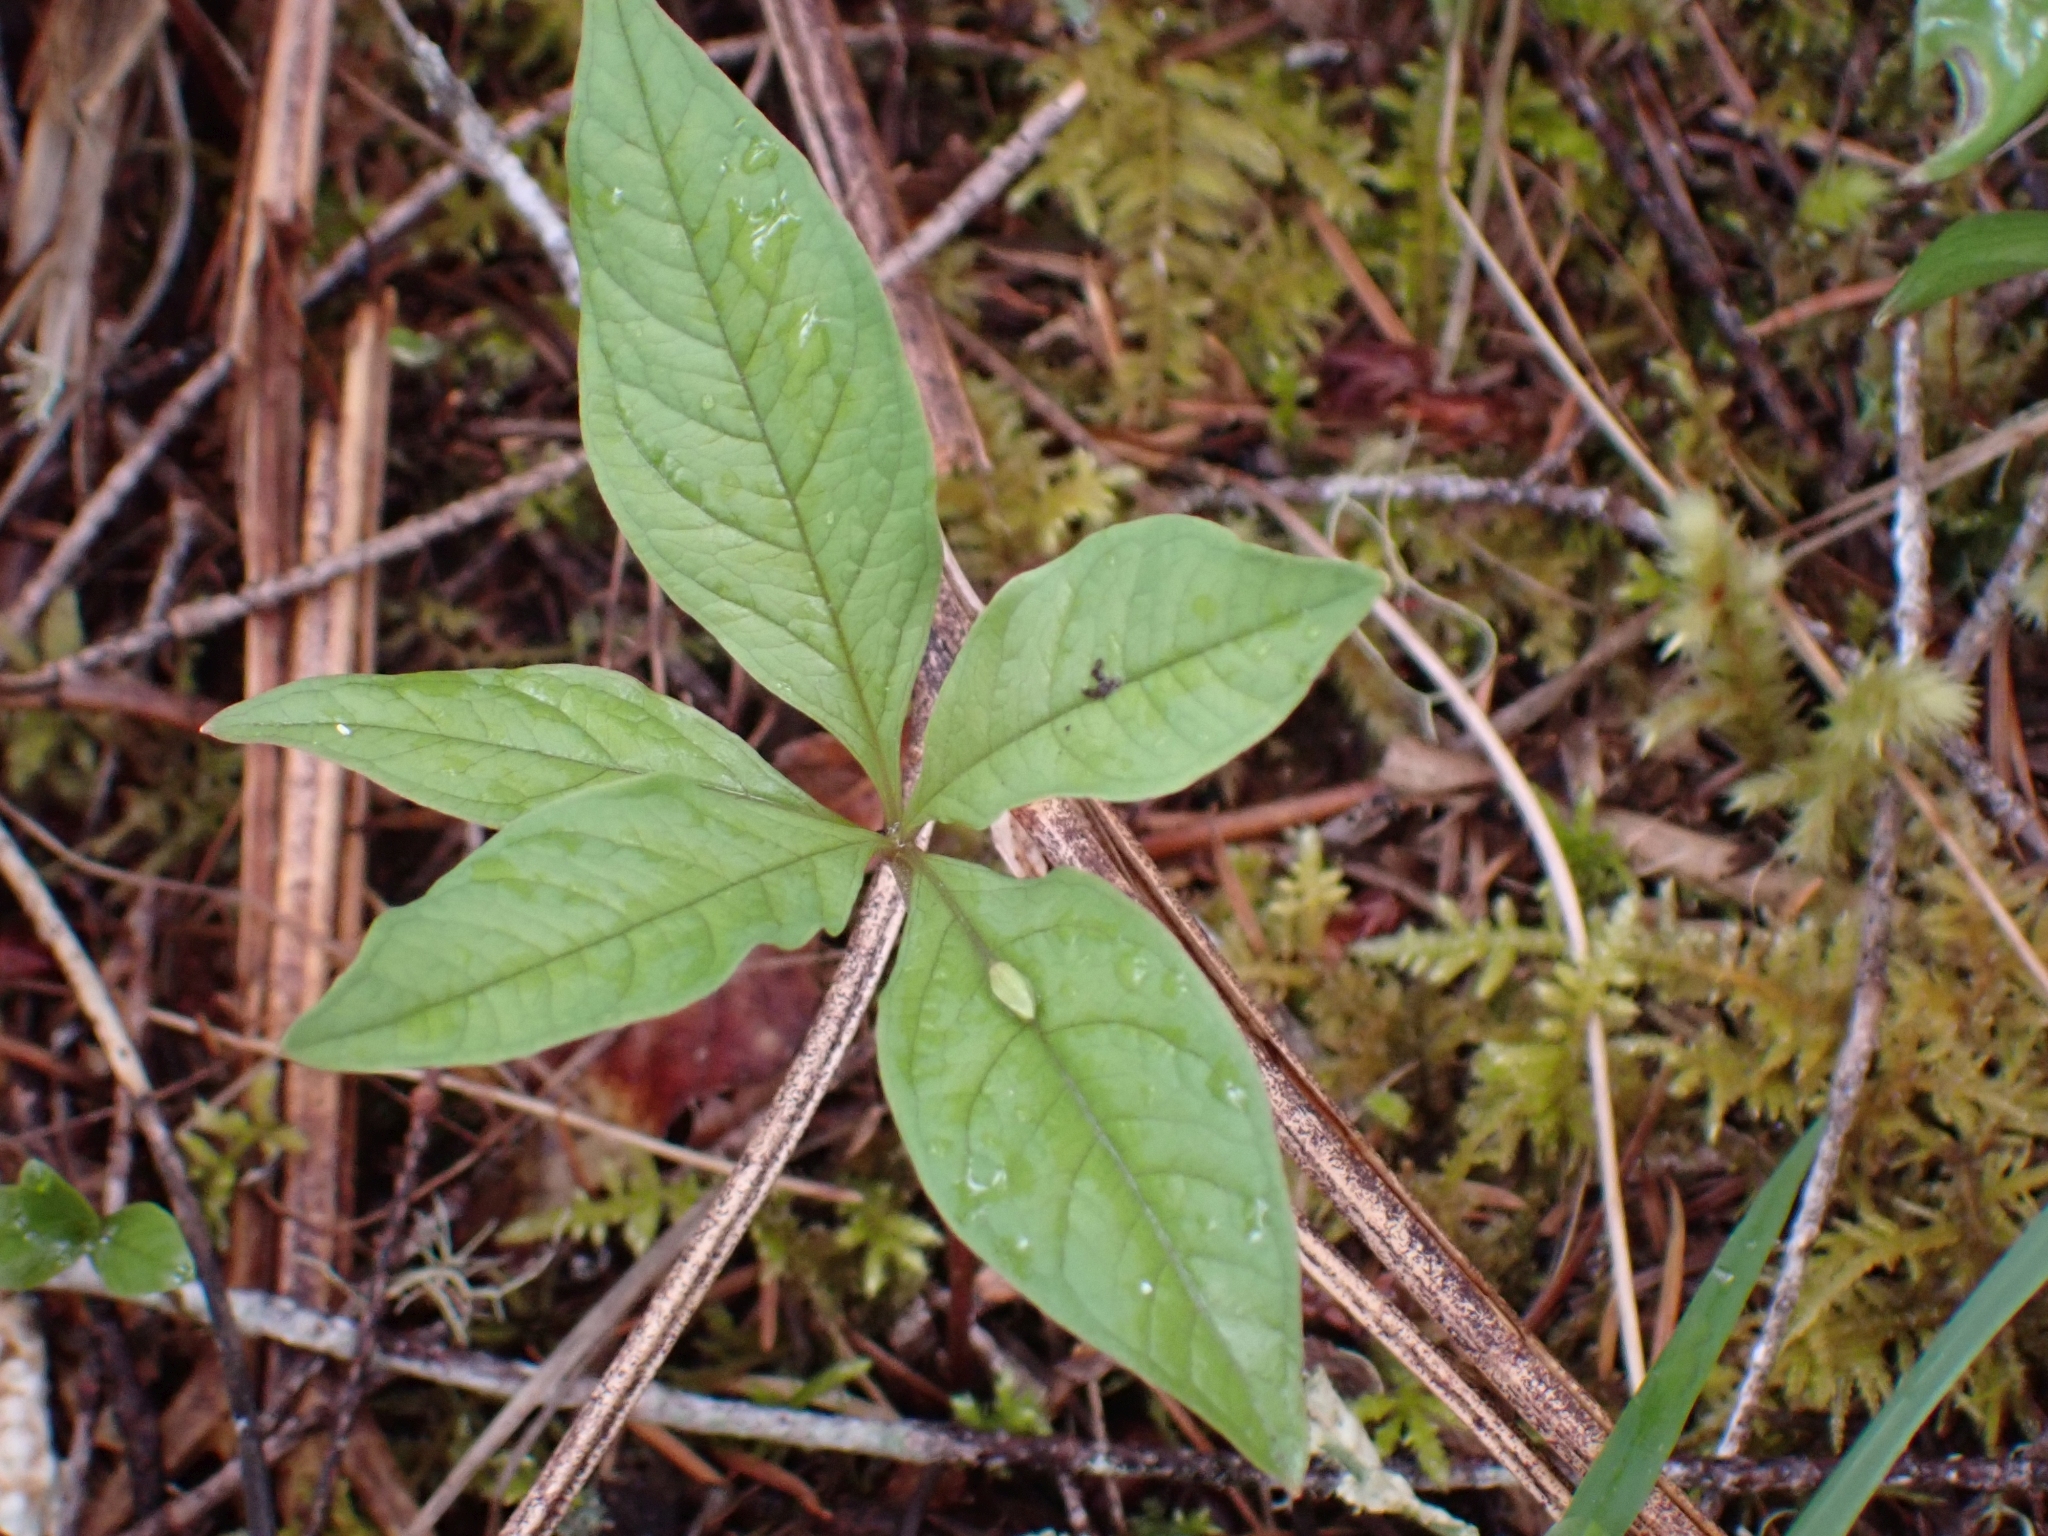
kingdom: Plantae
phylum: Tracheophyta
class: Magnoliopsida
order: Ericales
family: Primulaceae
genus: Lysimachia
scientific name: Lysimachia latifolia
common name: Pacific starflower
